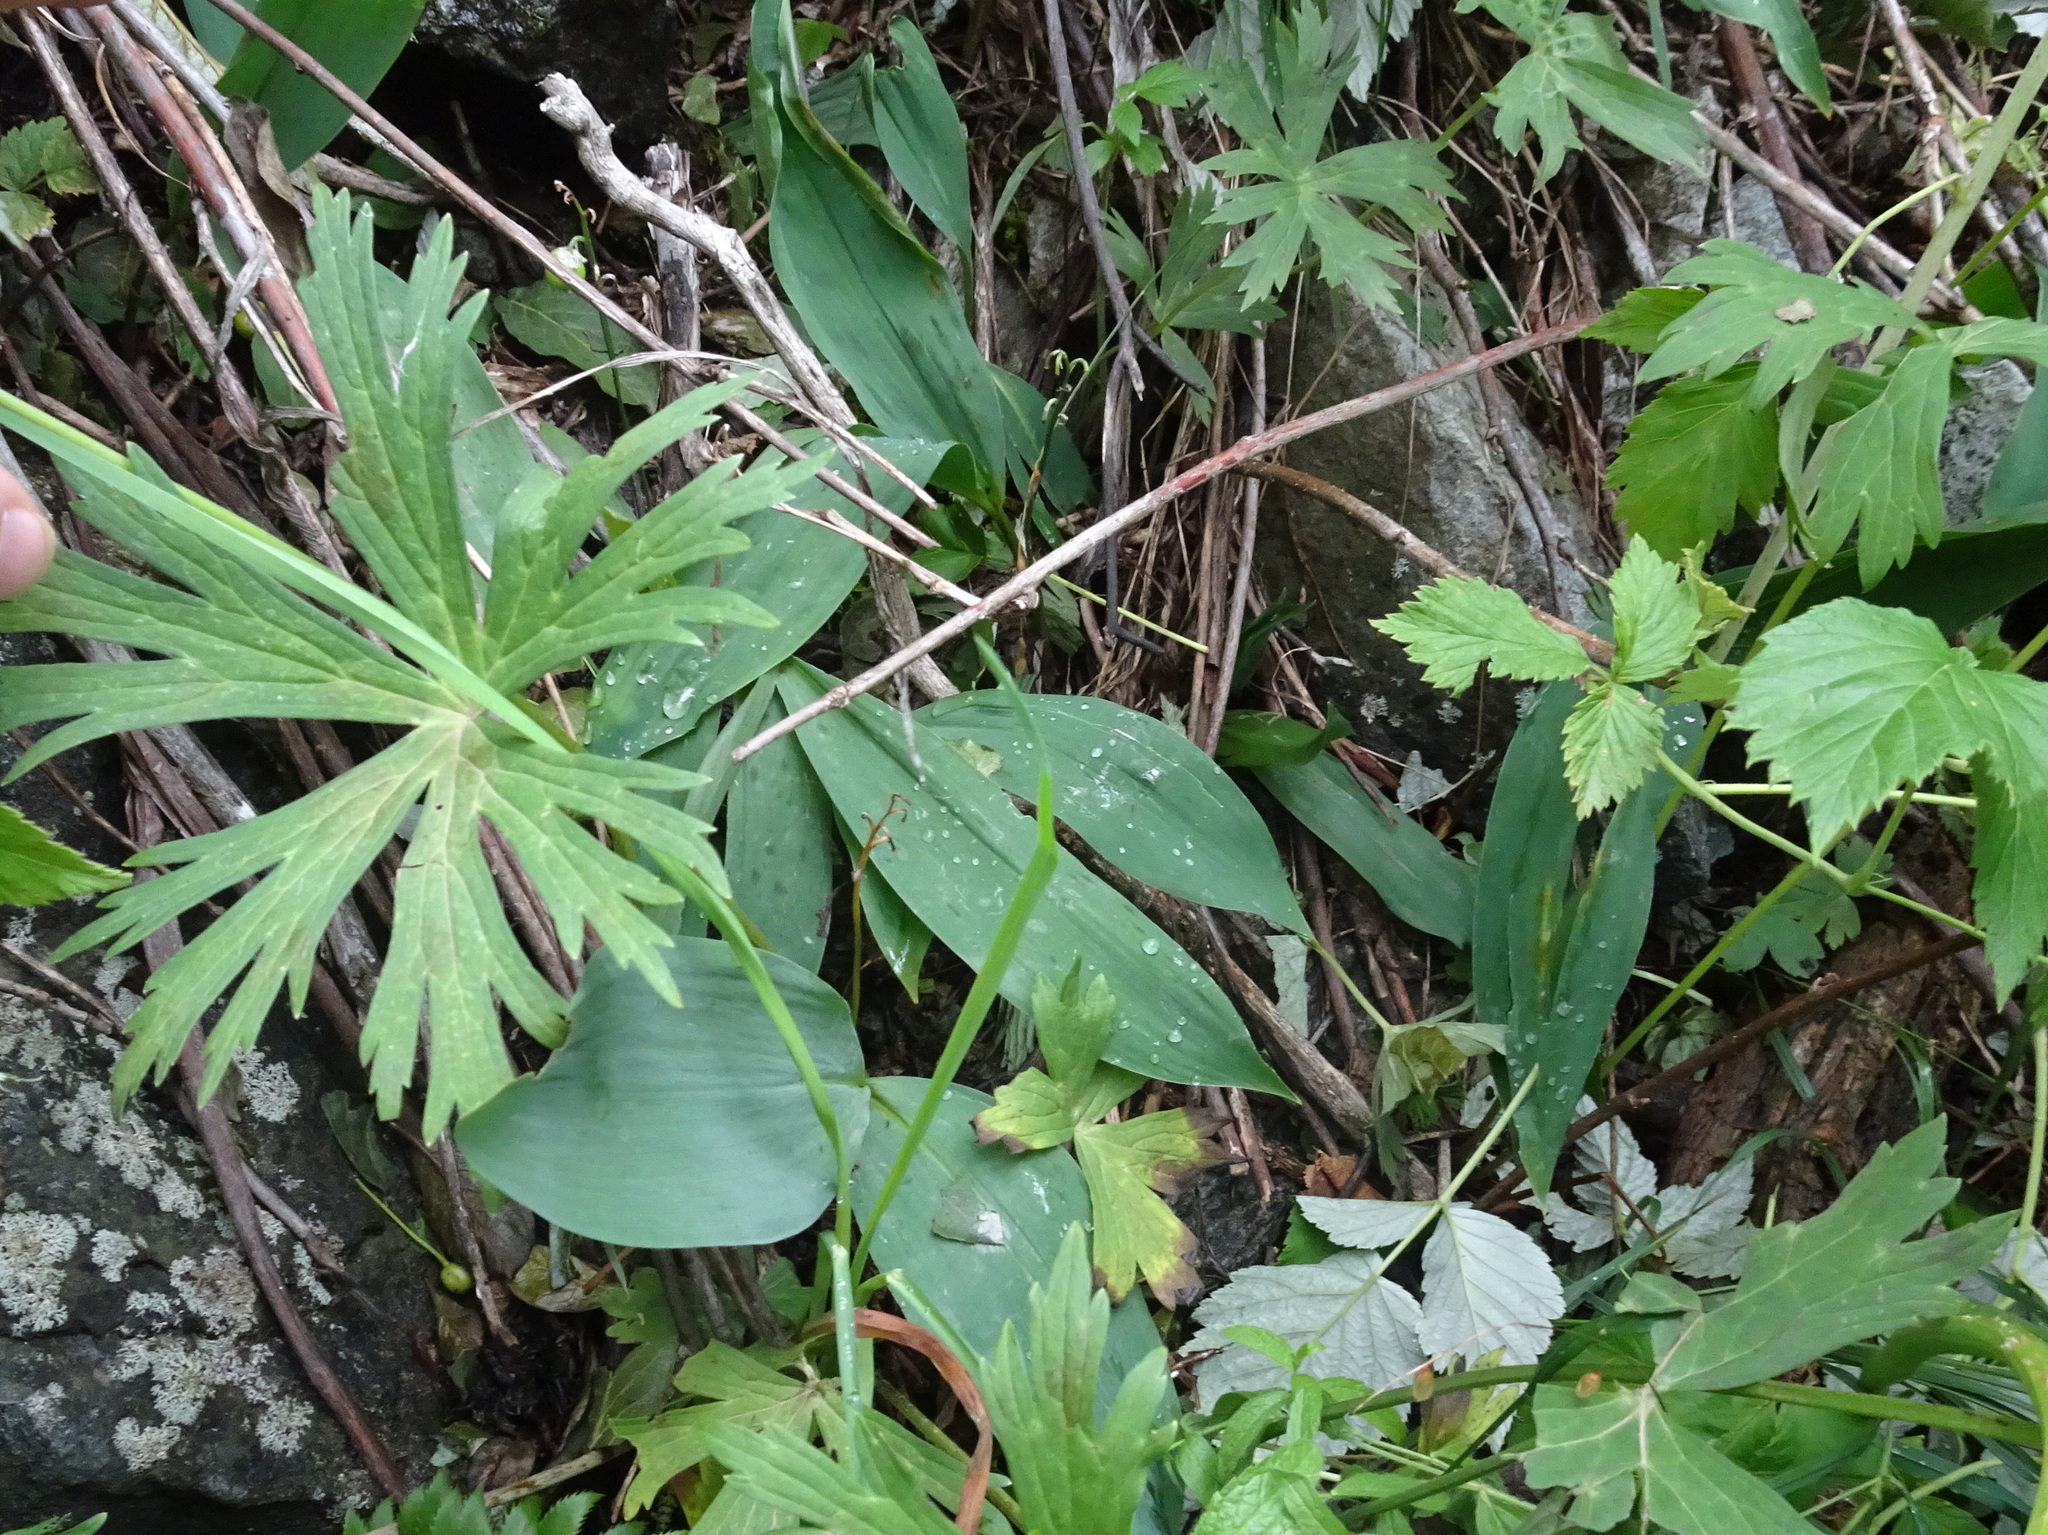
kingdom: Plantae
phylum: Tracheophyta
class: Liliopsida
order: Asparagales
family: Asparagaceae
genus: Convallaria
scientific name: Convallaria majalis
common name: Lily-of-the-valley
